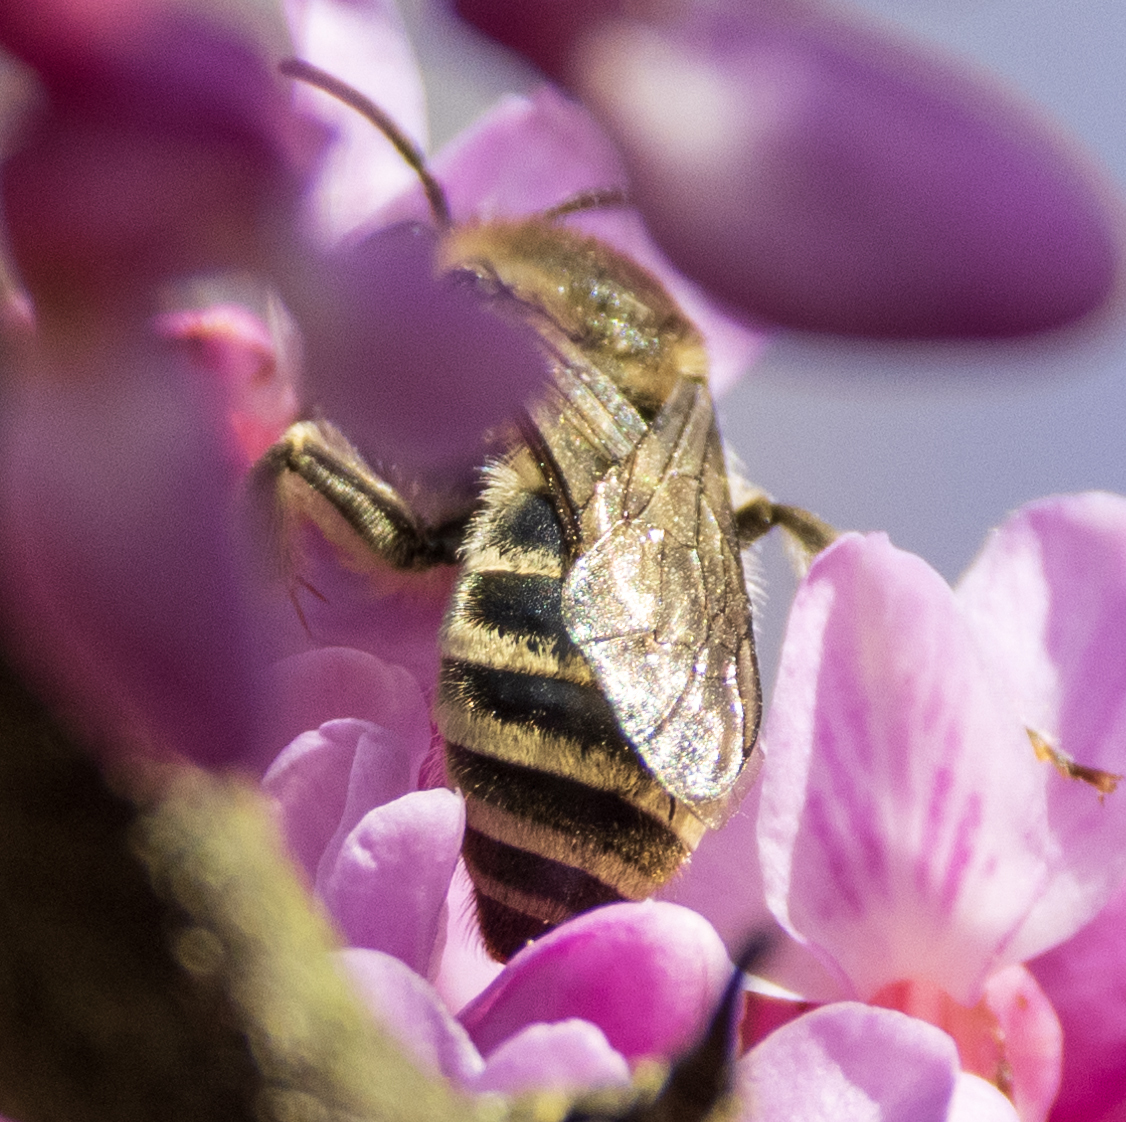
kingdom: Animalia
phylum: Arthropoda
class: Insecta
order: Hymenoptera
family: Colletidae
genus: Colletes
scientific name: Colletes inaequalis
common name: Unequal cellophane bee
